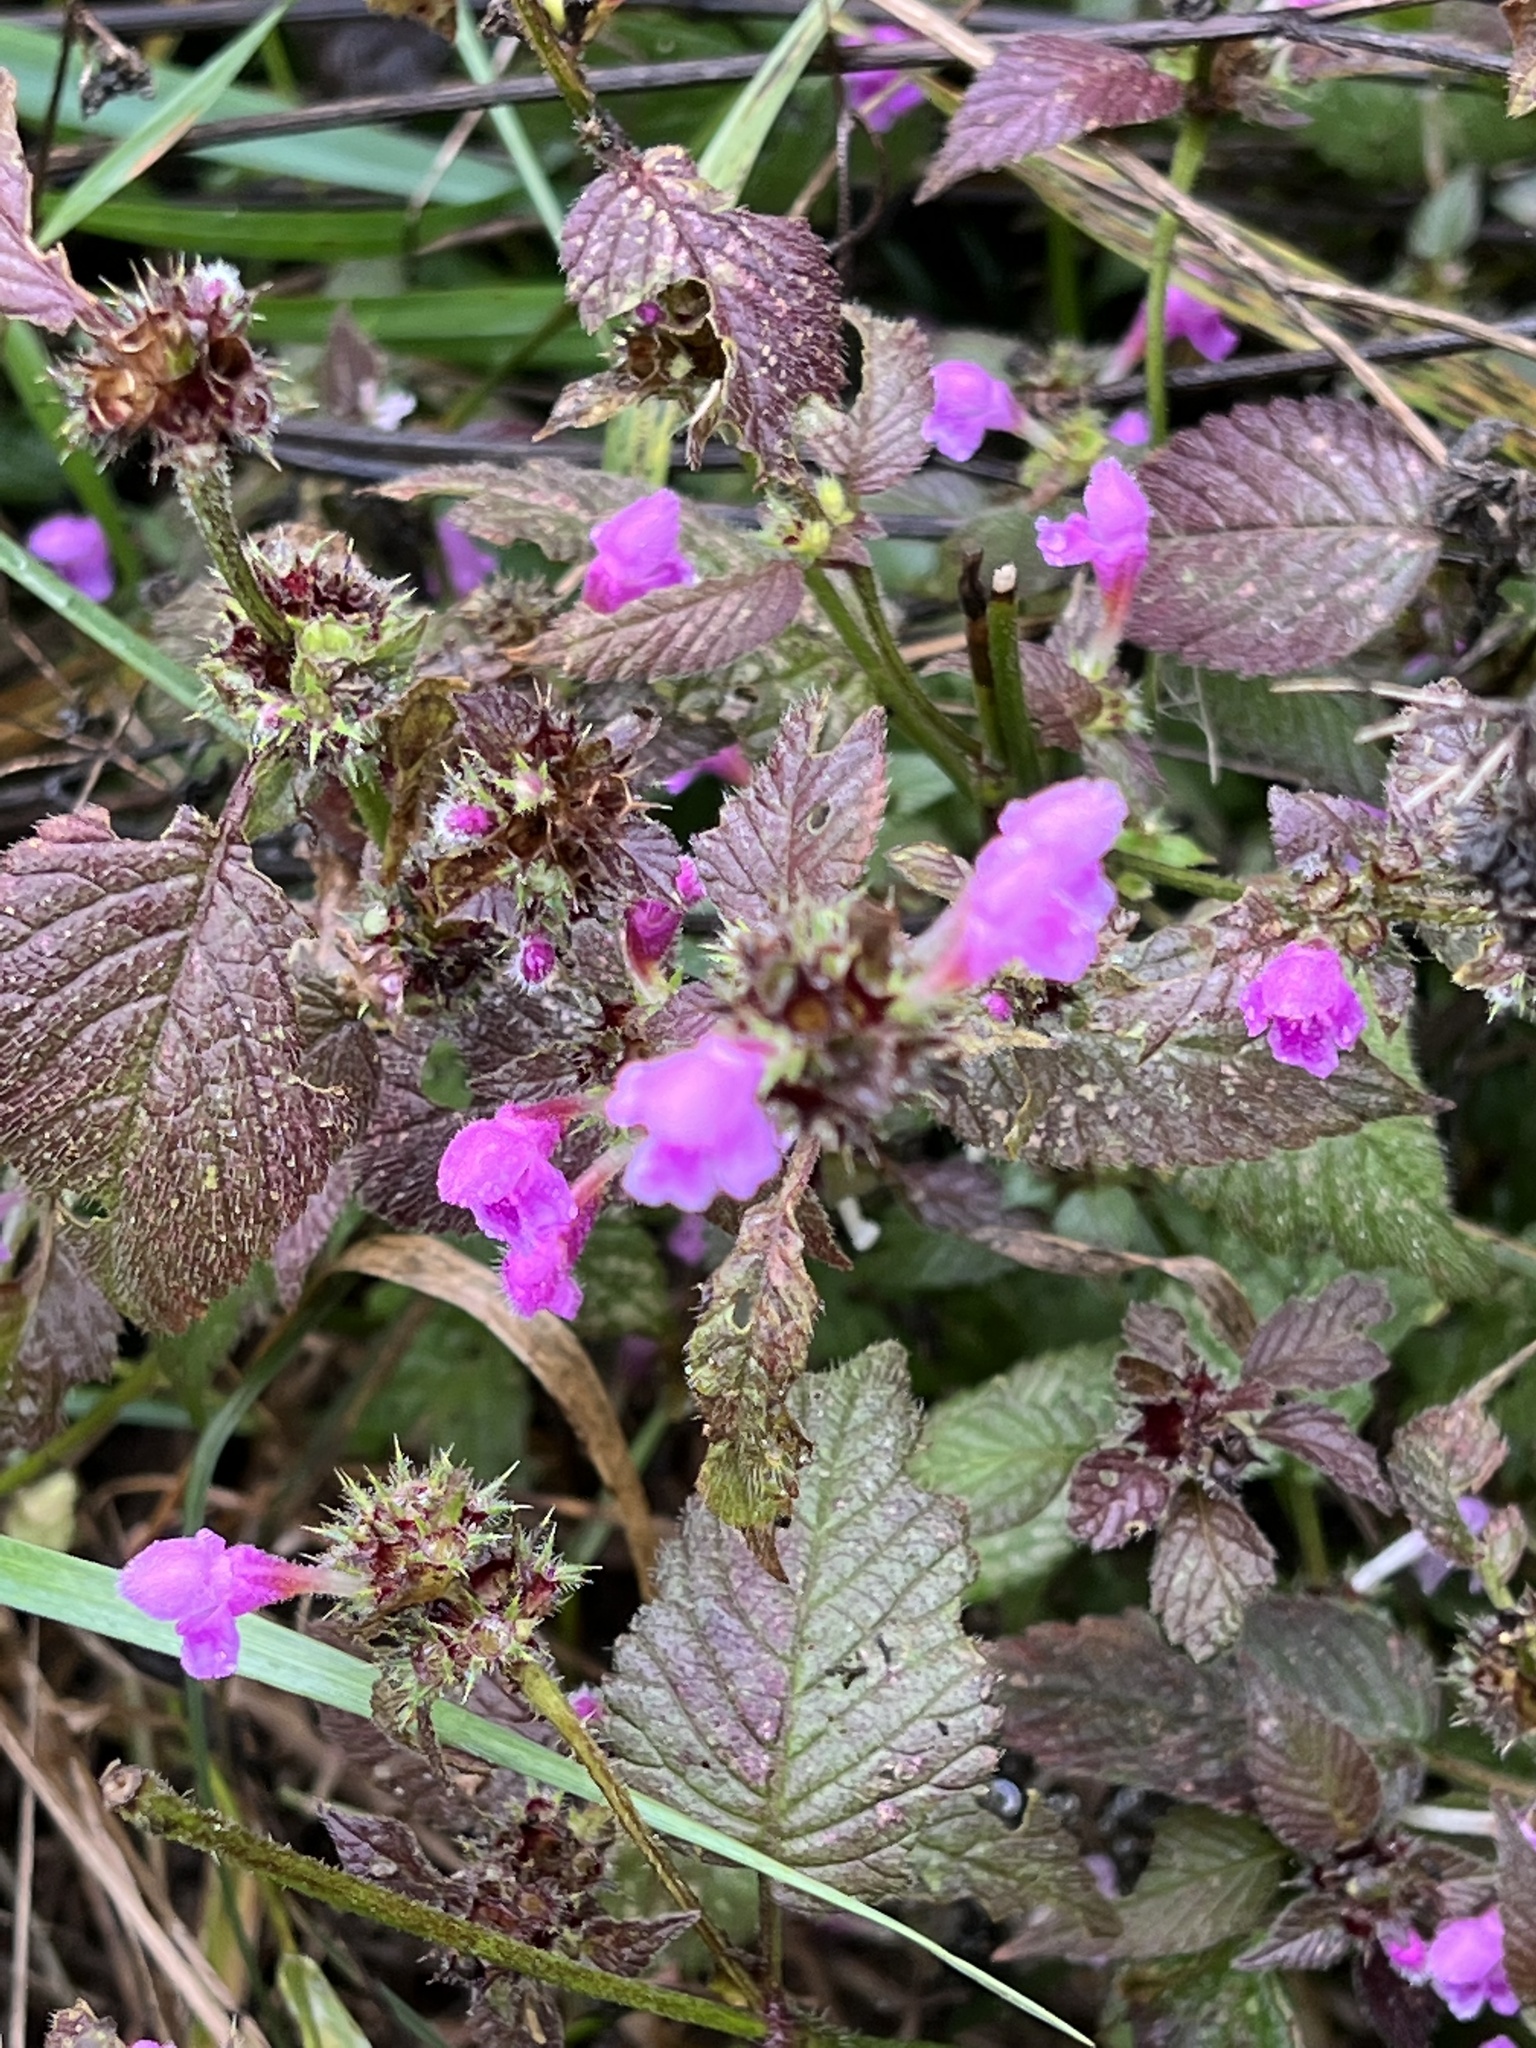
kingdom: Plantae
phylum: Tracheophyta
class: Magnoliopsida
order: Lamiales
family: Lamiaceae
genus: Ballota
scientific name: Ballota nigra
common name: Black horehound
